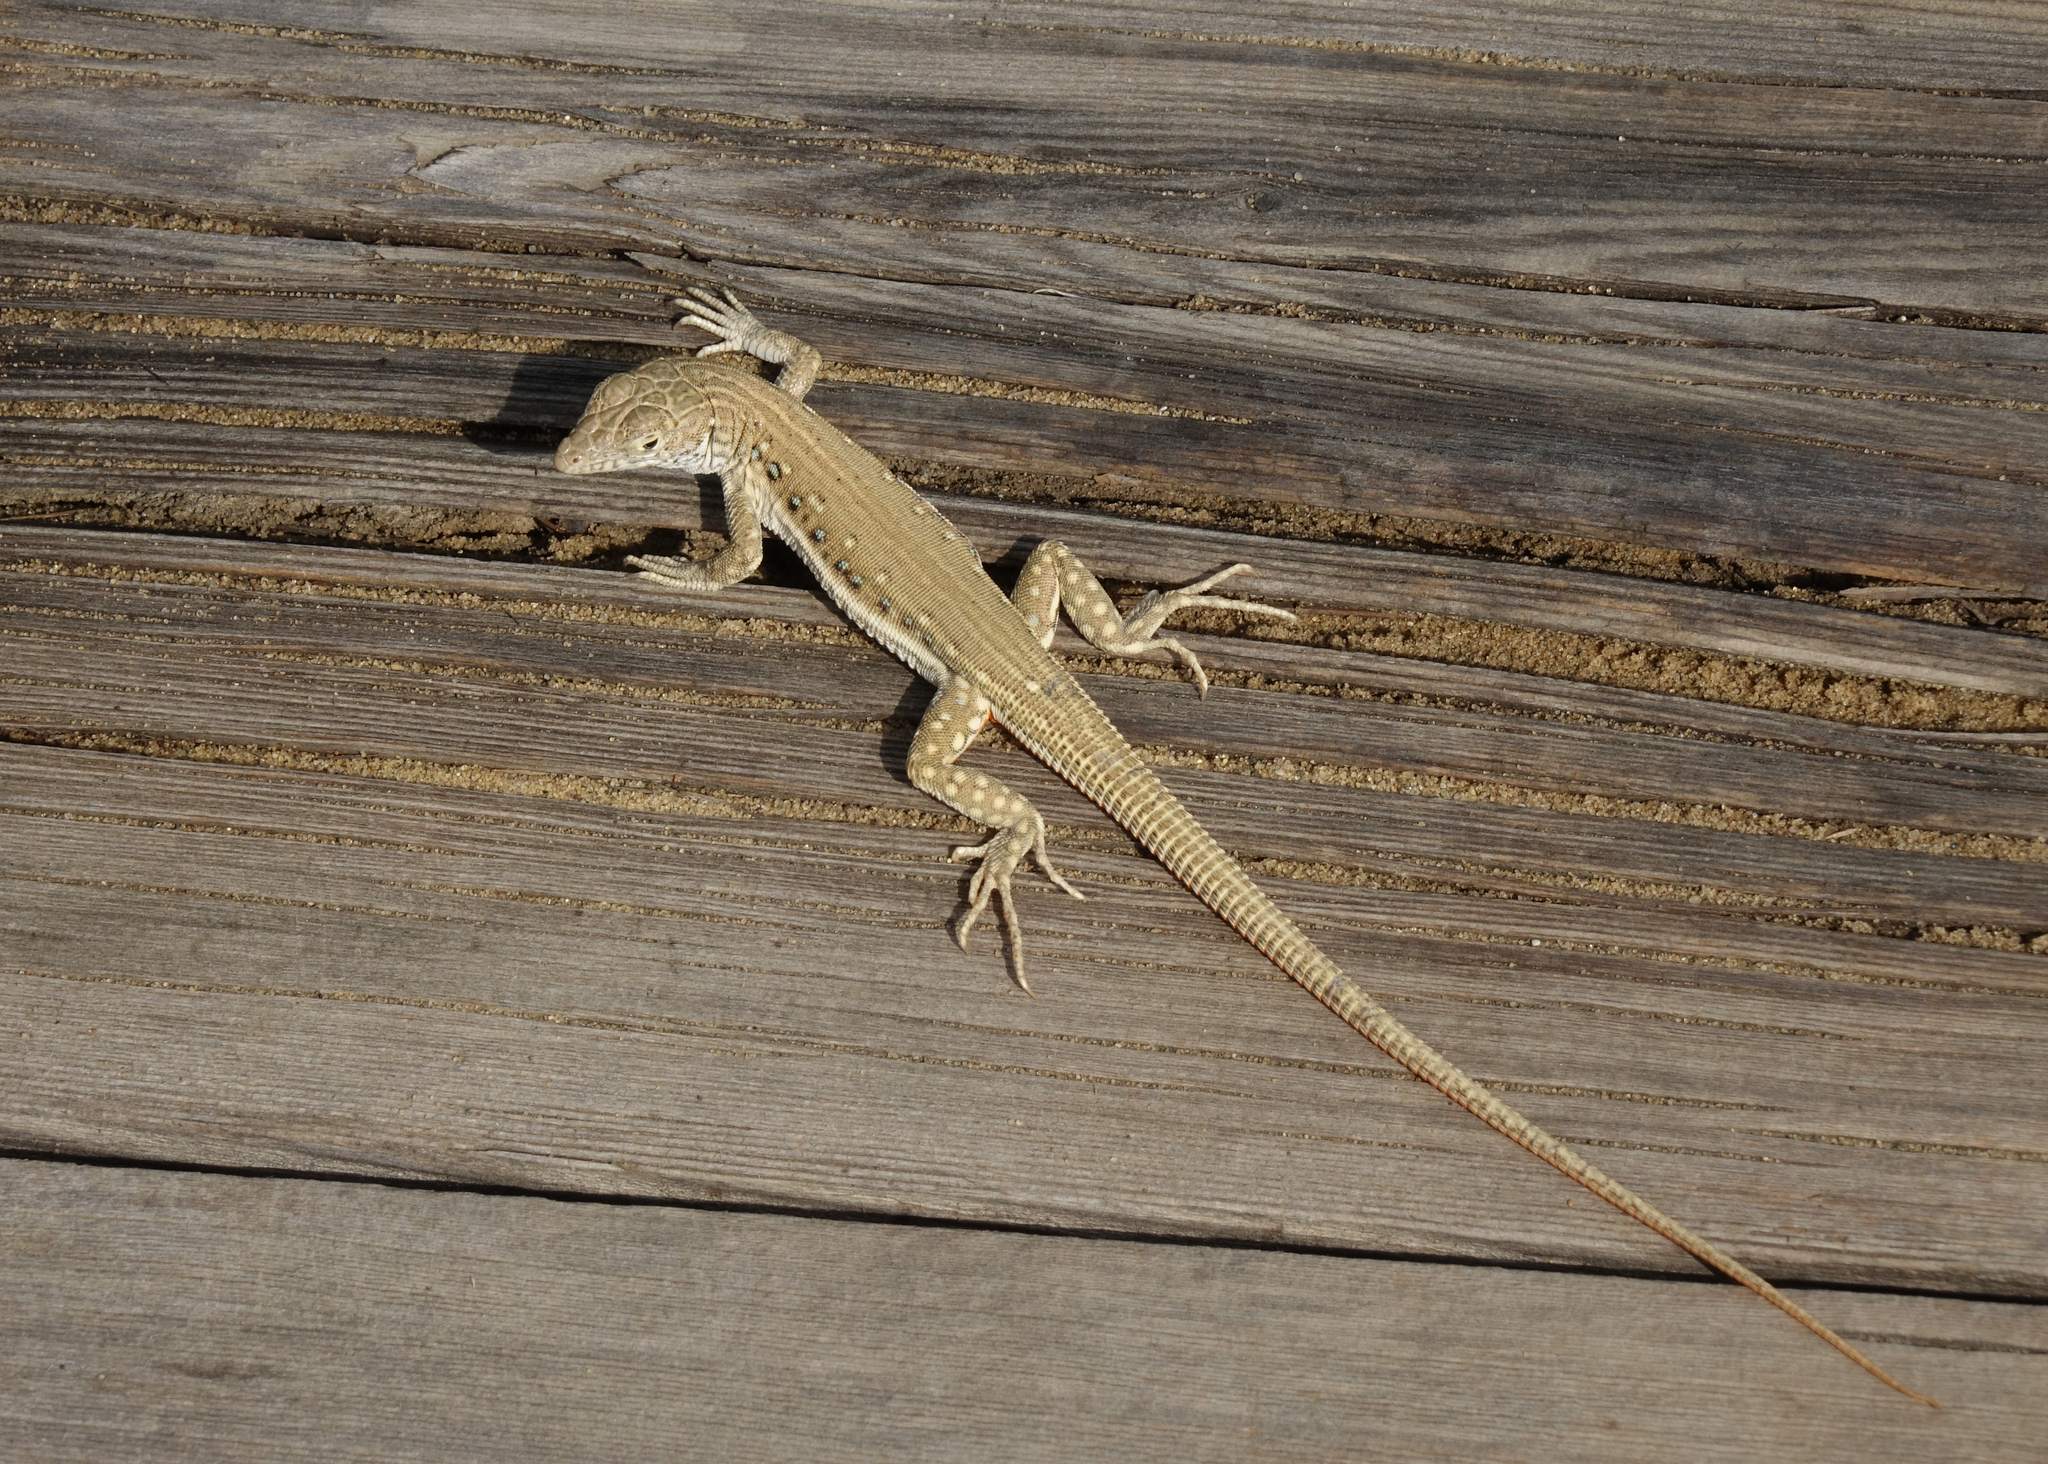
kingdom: Animalia
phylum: Chordata
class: Squamata
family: Lacertidae
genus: Eremias
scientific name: Eremias velox
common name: Central asian racerunner
